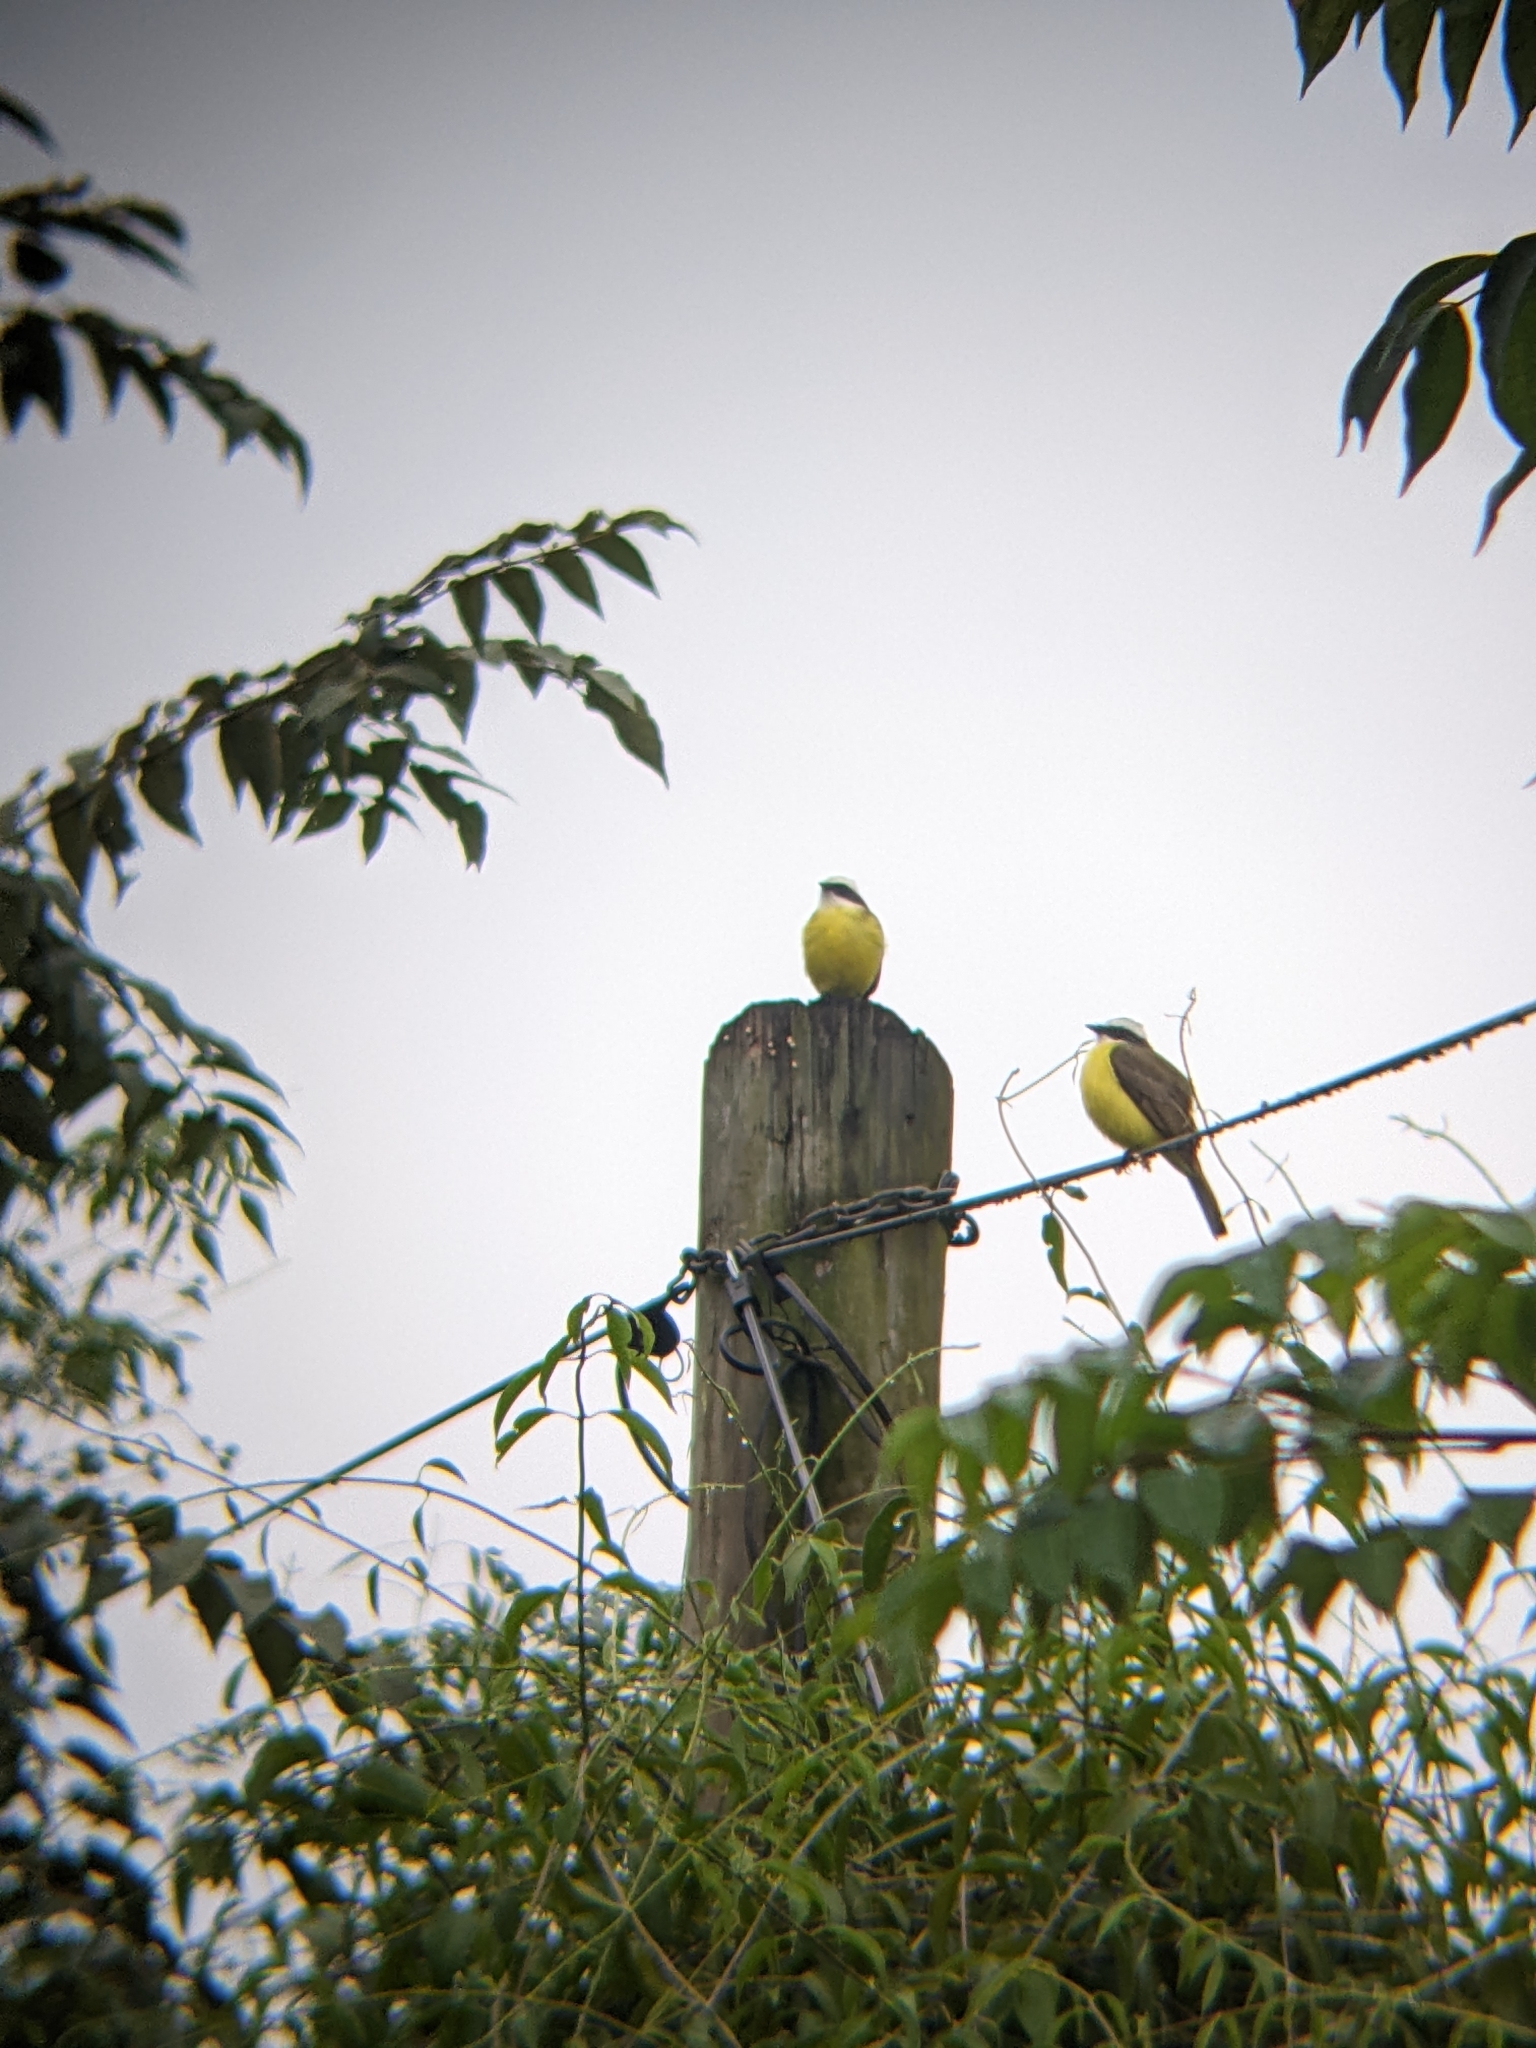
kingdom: Animalia
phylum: Chordata
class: Aves
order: Passeriformes
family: Tyrannidae
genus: Myiozetetes
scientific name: Myiozetetes similis
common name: Social flycatcher
